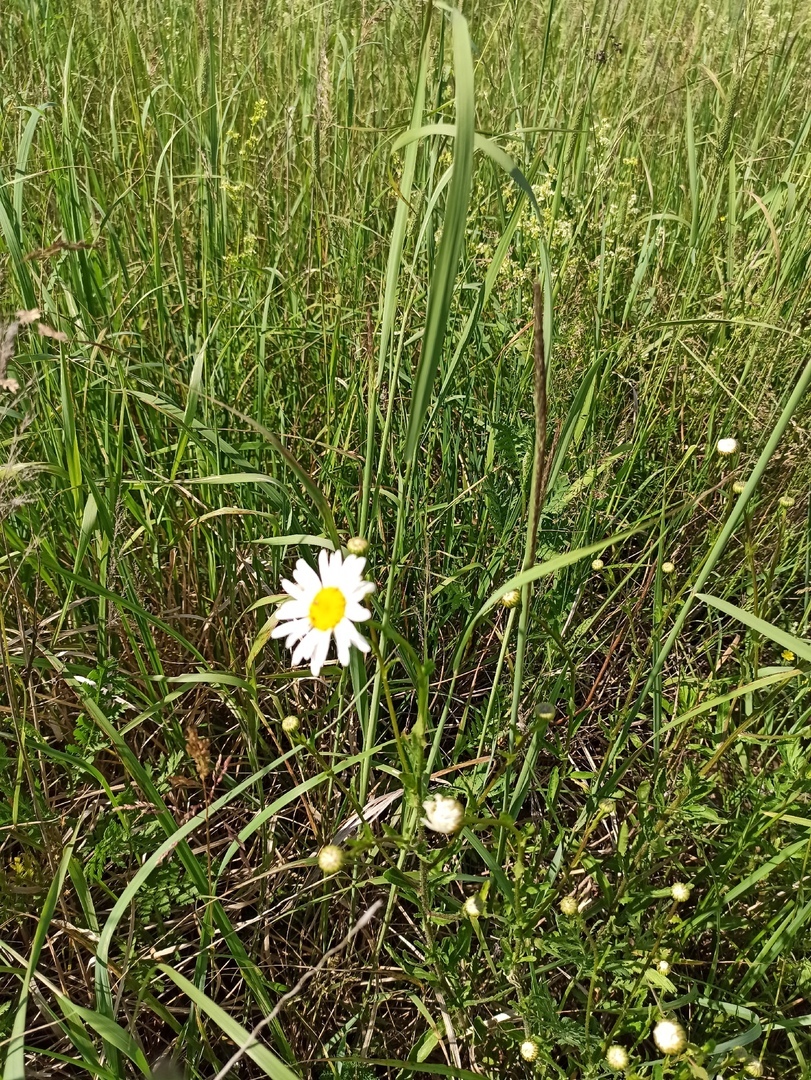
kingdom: Plantae
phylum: Tracheophyta
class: Magnoliopsida
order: Asterales
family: Asteraceae
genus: Leucanthemum
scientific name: Leucanthemum vulgare
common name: Oxeye daisy
